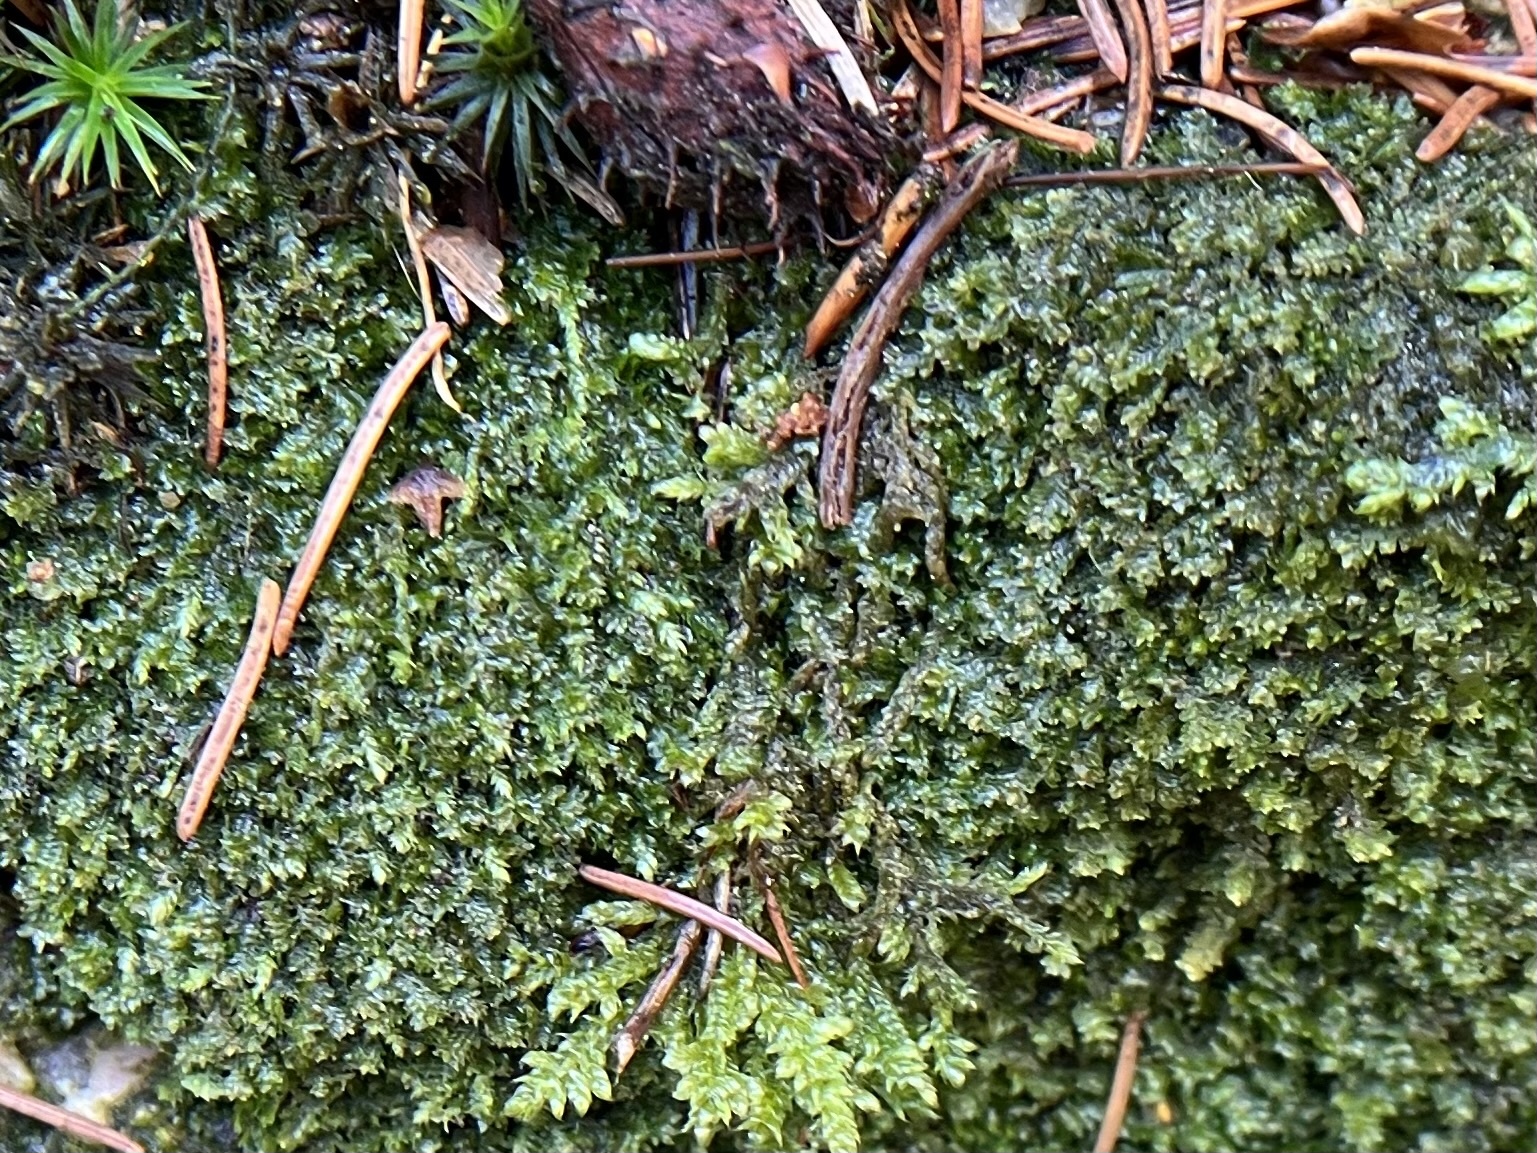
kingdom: Plantae
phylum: Marchantiophyta
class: Jungermanniopsida
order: Jungermanniales
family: Scapaniaceae
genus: Diplophyllum
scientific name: Diplophyllum albicans
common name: White earwort
